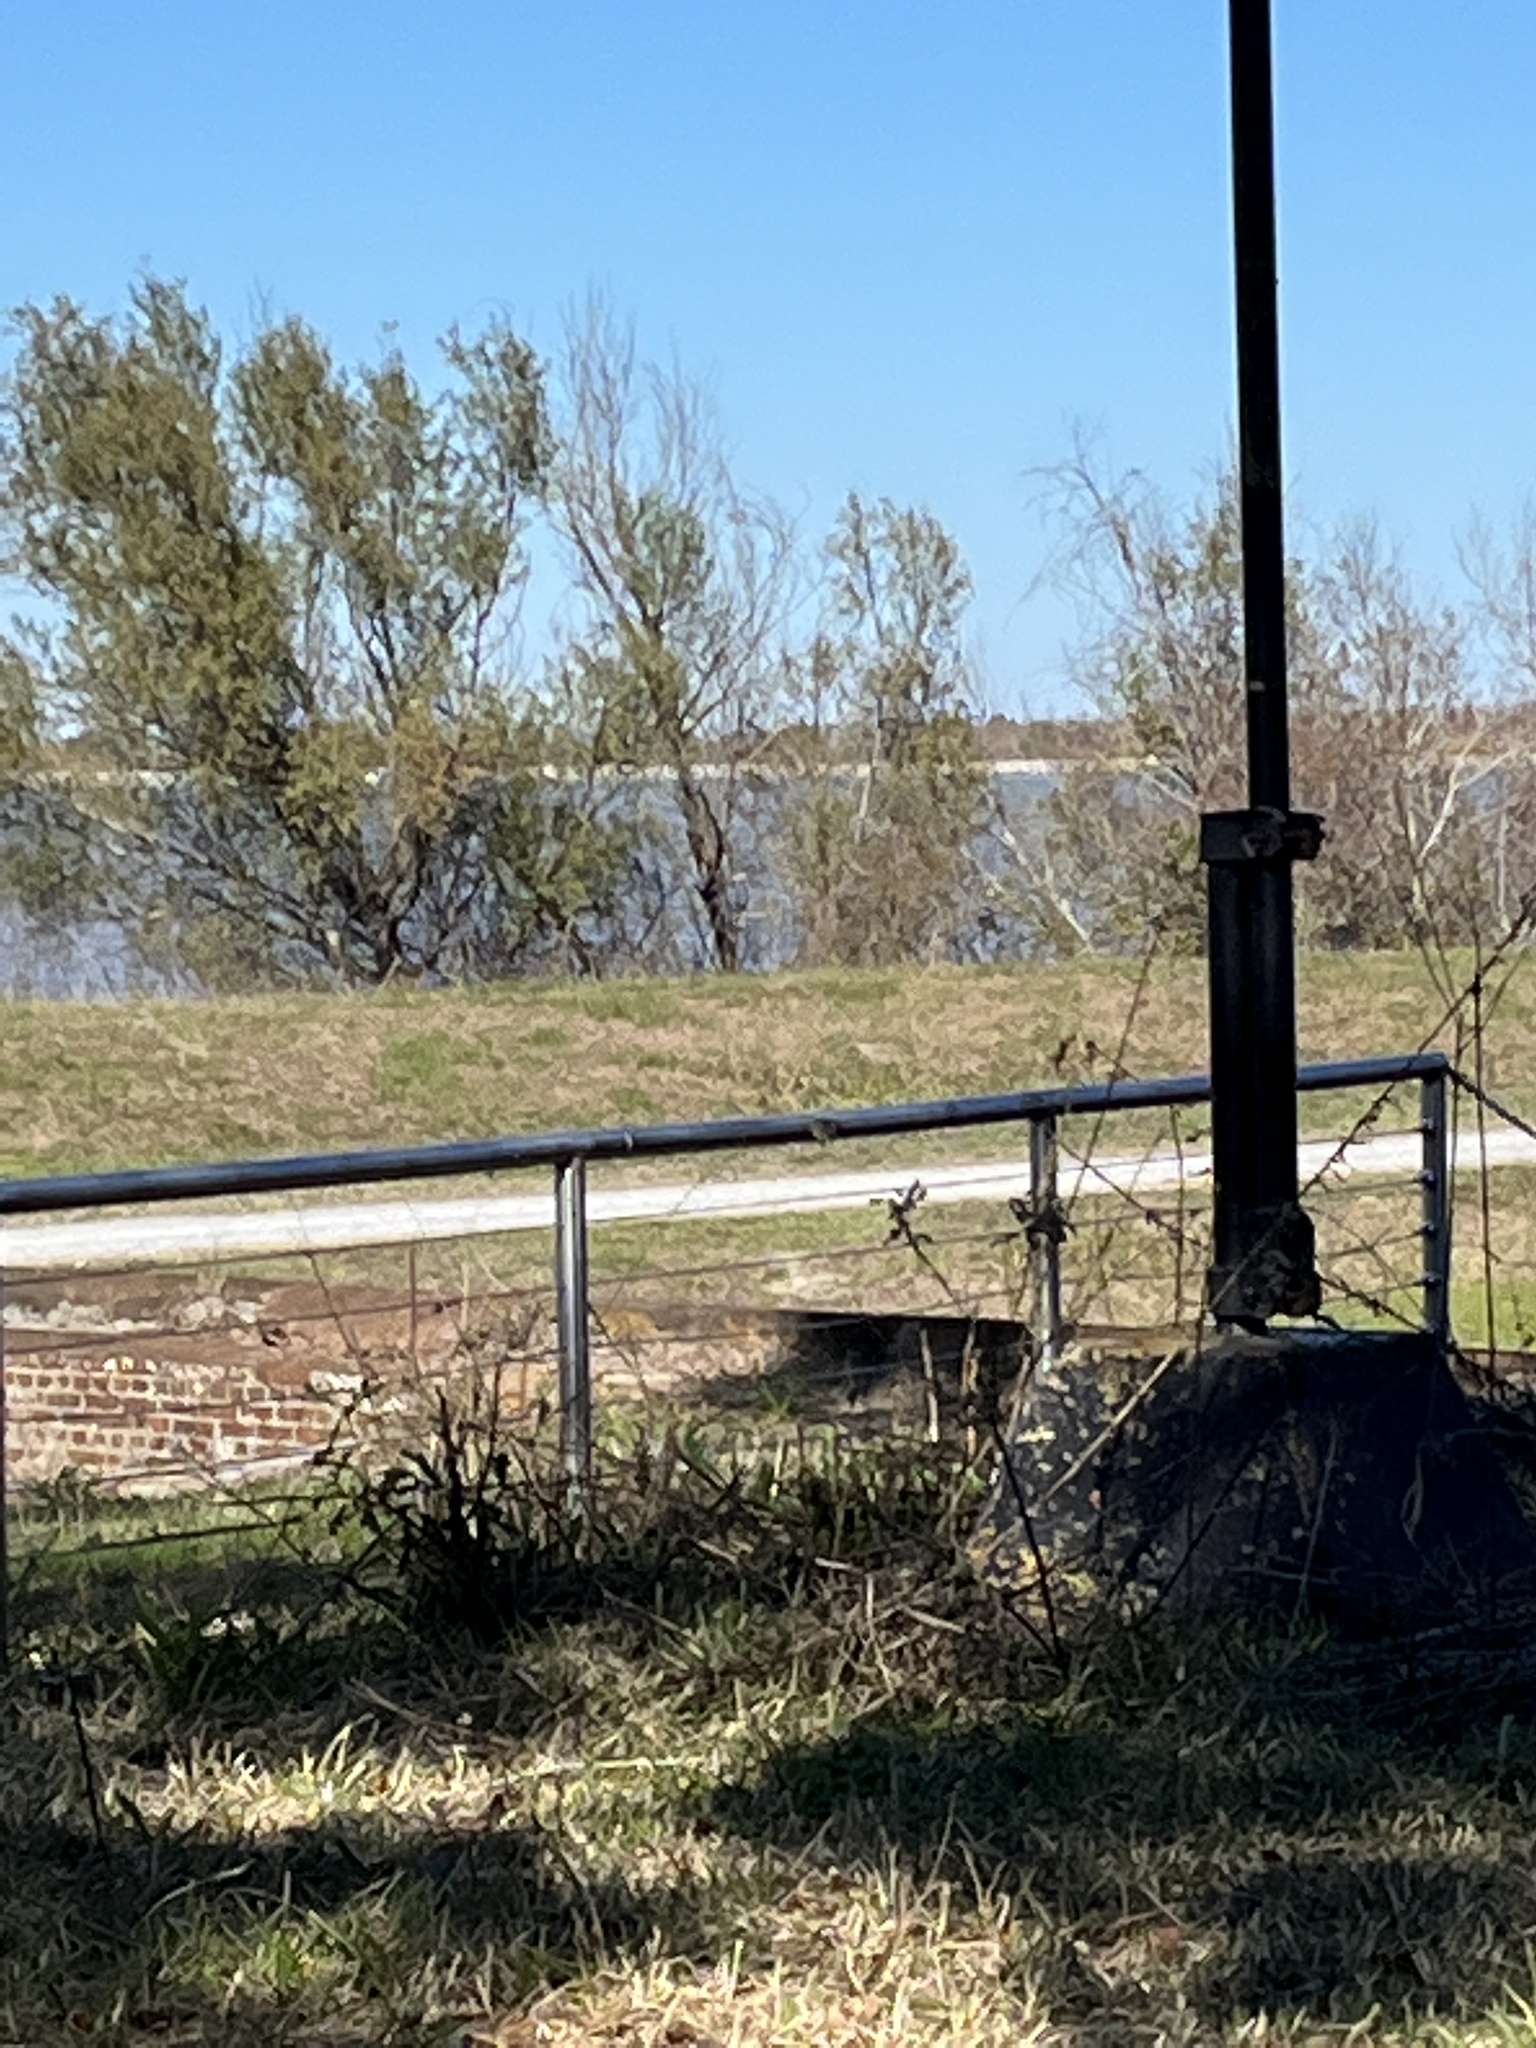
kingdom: Animalia
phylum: Chordata
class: Aves
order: Passeriformes
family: Tyrannidae
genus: Sayornis
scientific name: Sayornis phoebe
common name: Eastern phoebe
